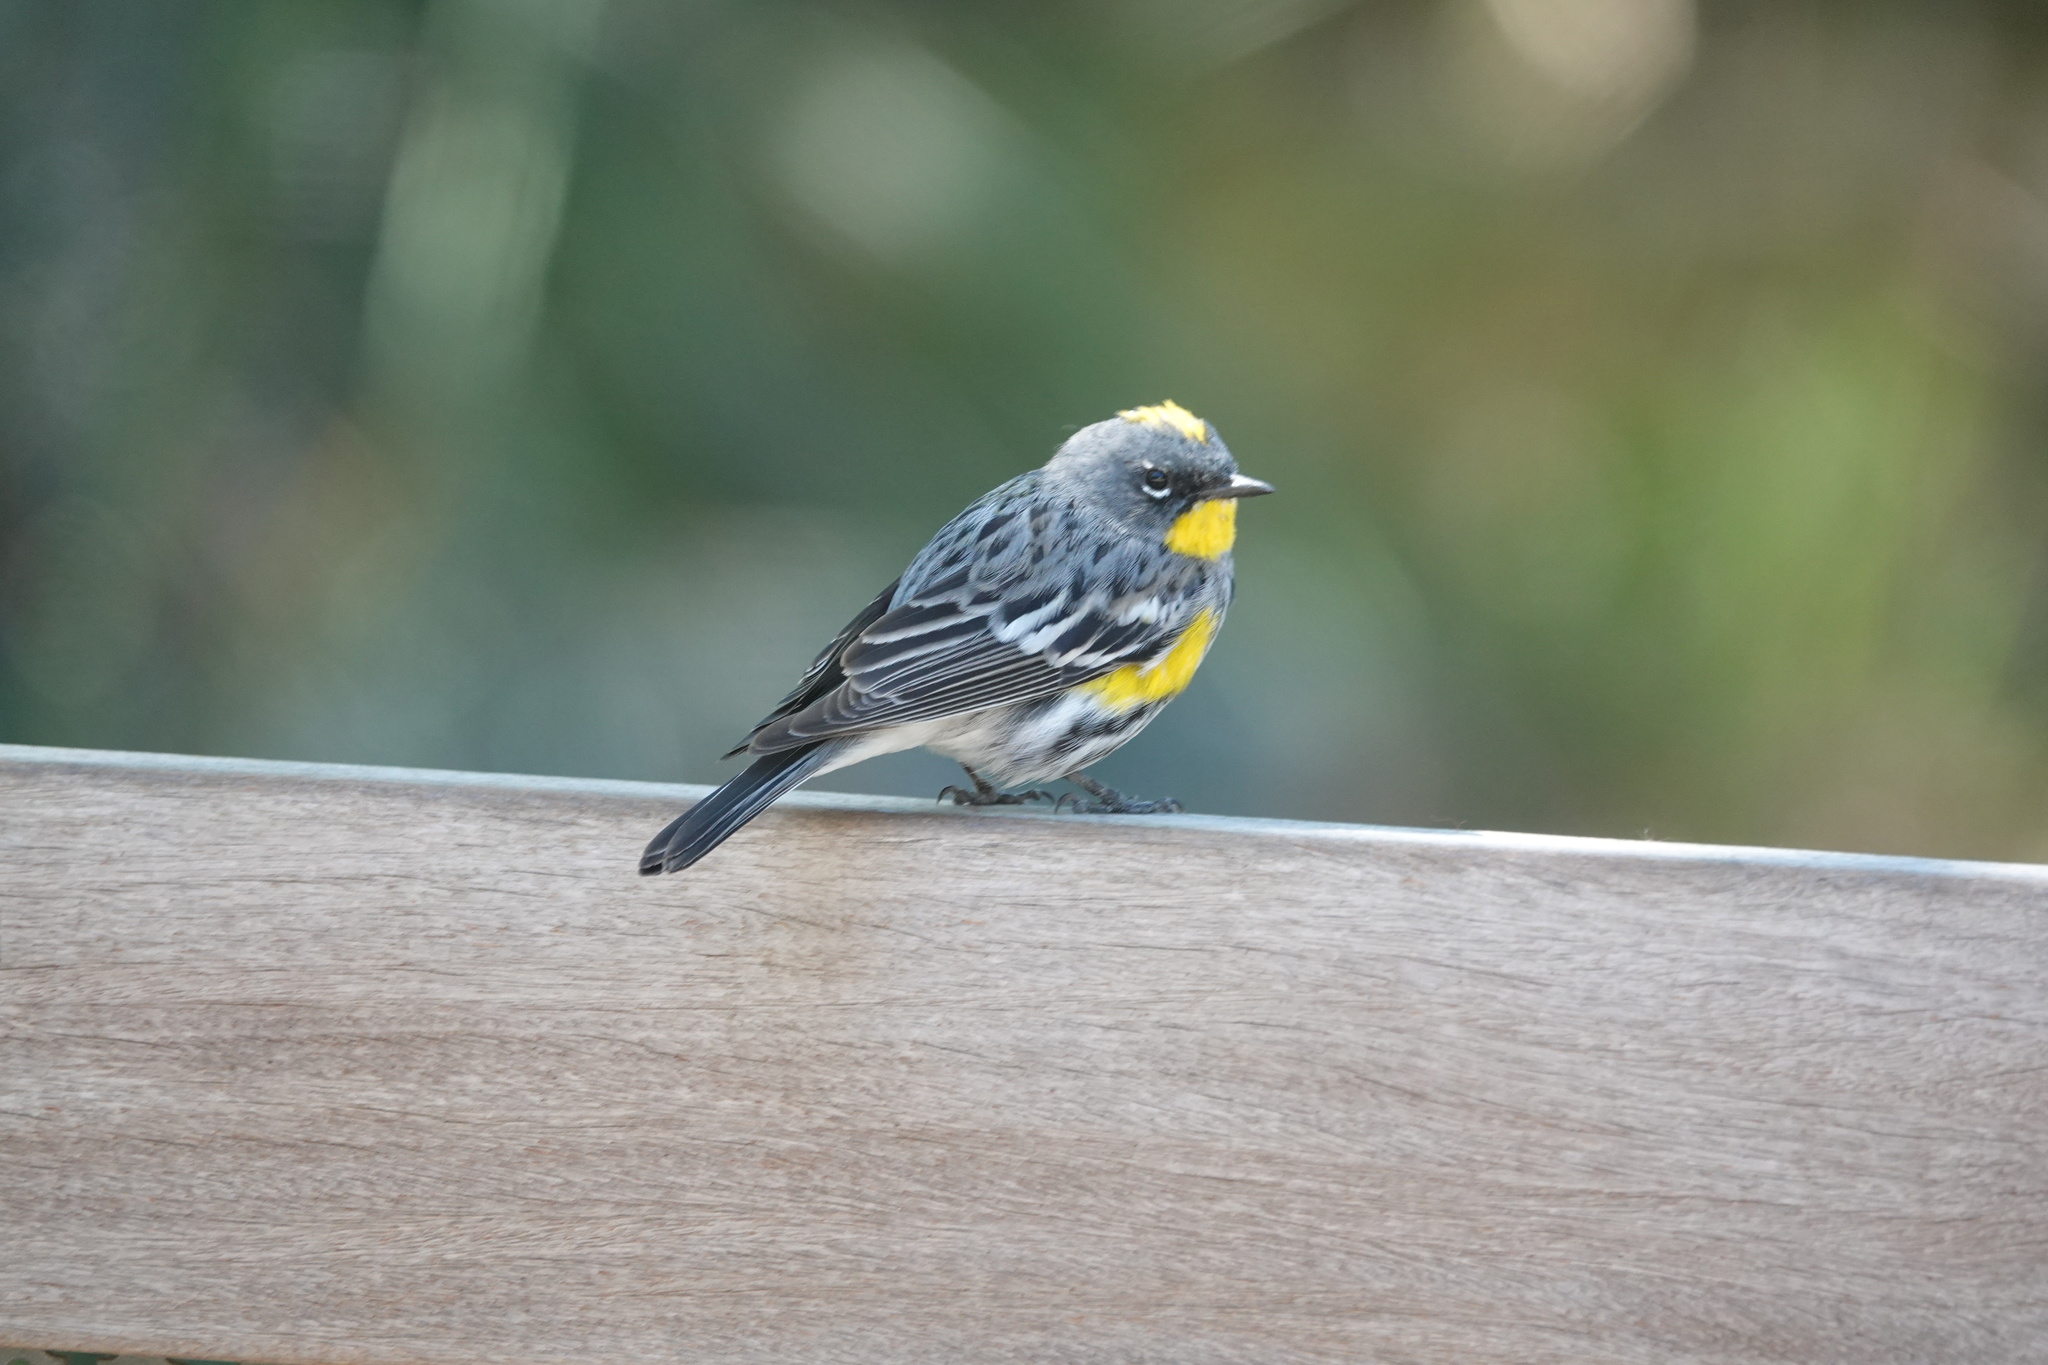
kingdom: Animalia
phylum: Chordata
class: Aves
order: Passeriformes
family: Parulidae
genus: Setophaga
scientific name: Setophaga auduboni
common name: Audubon's warbler
